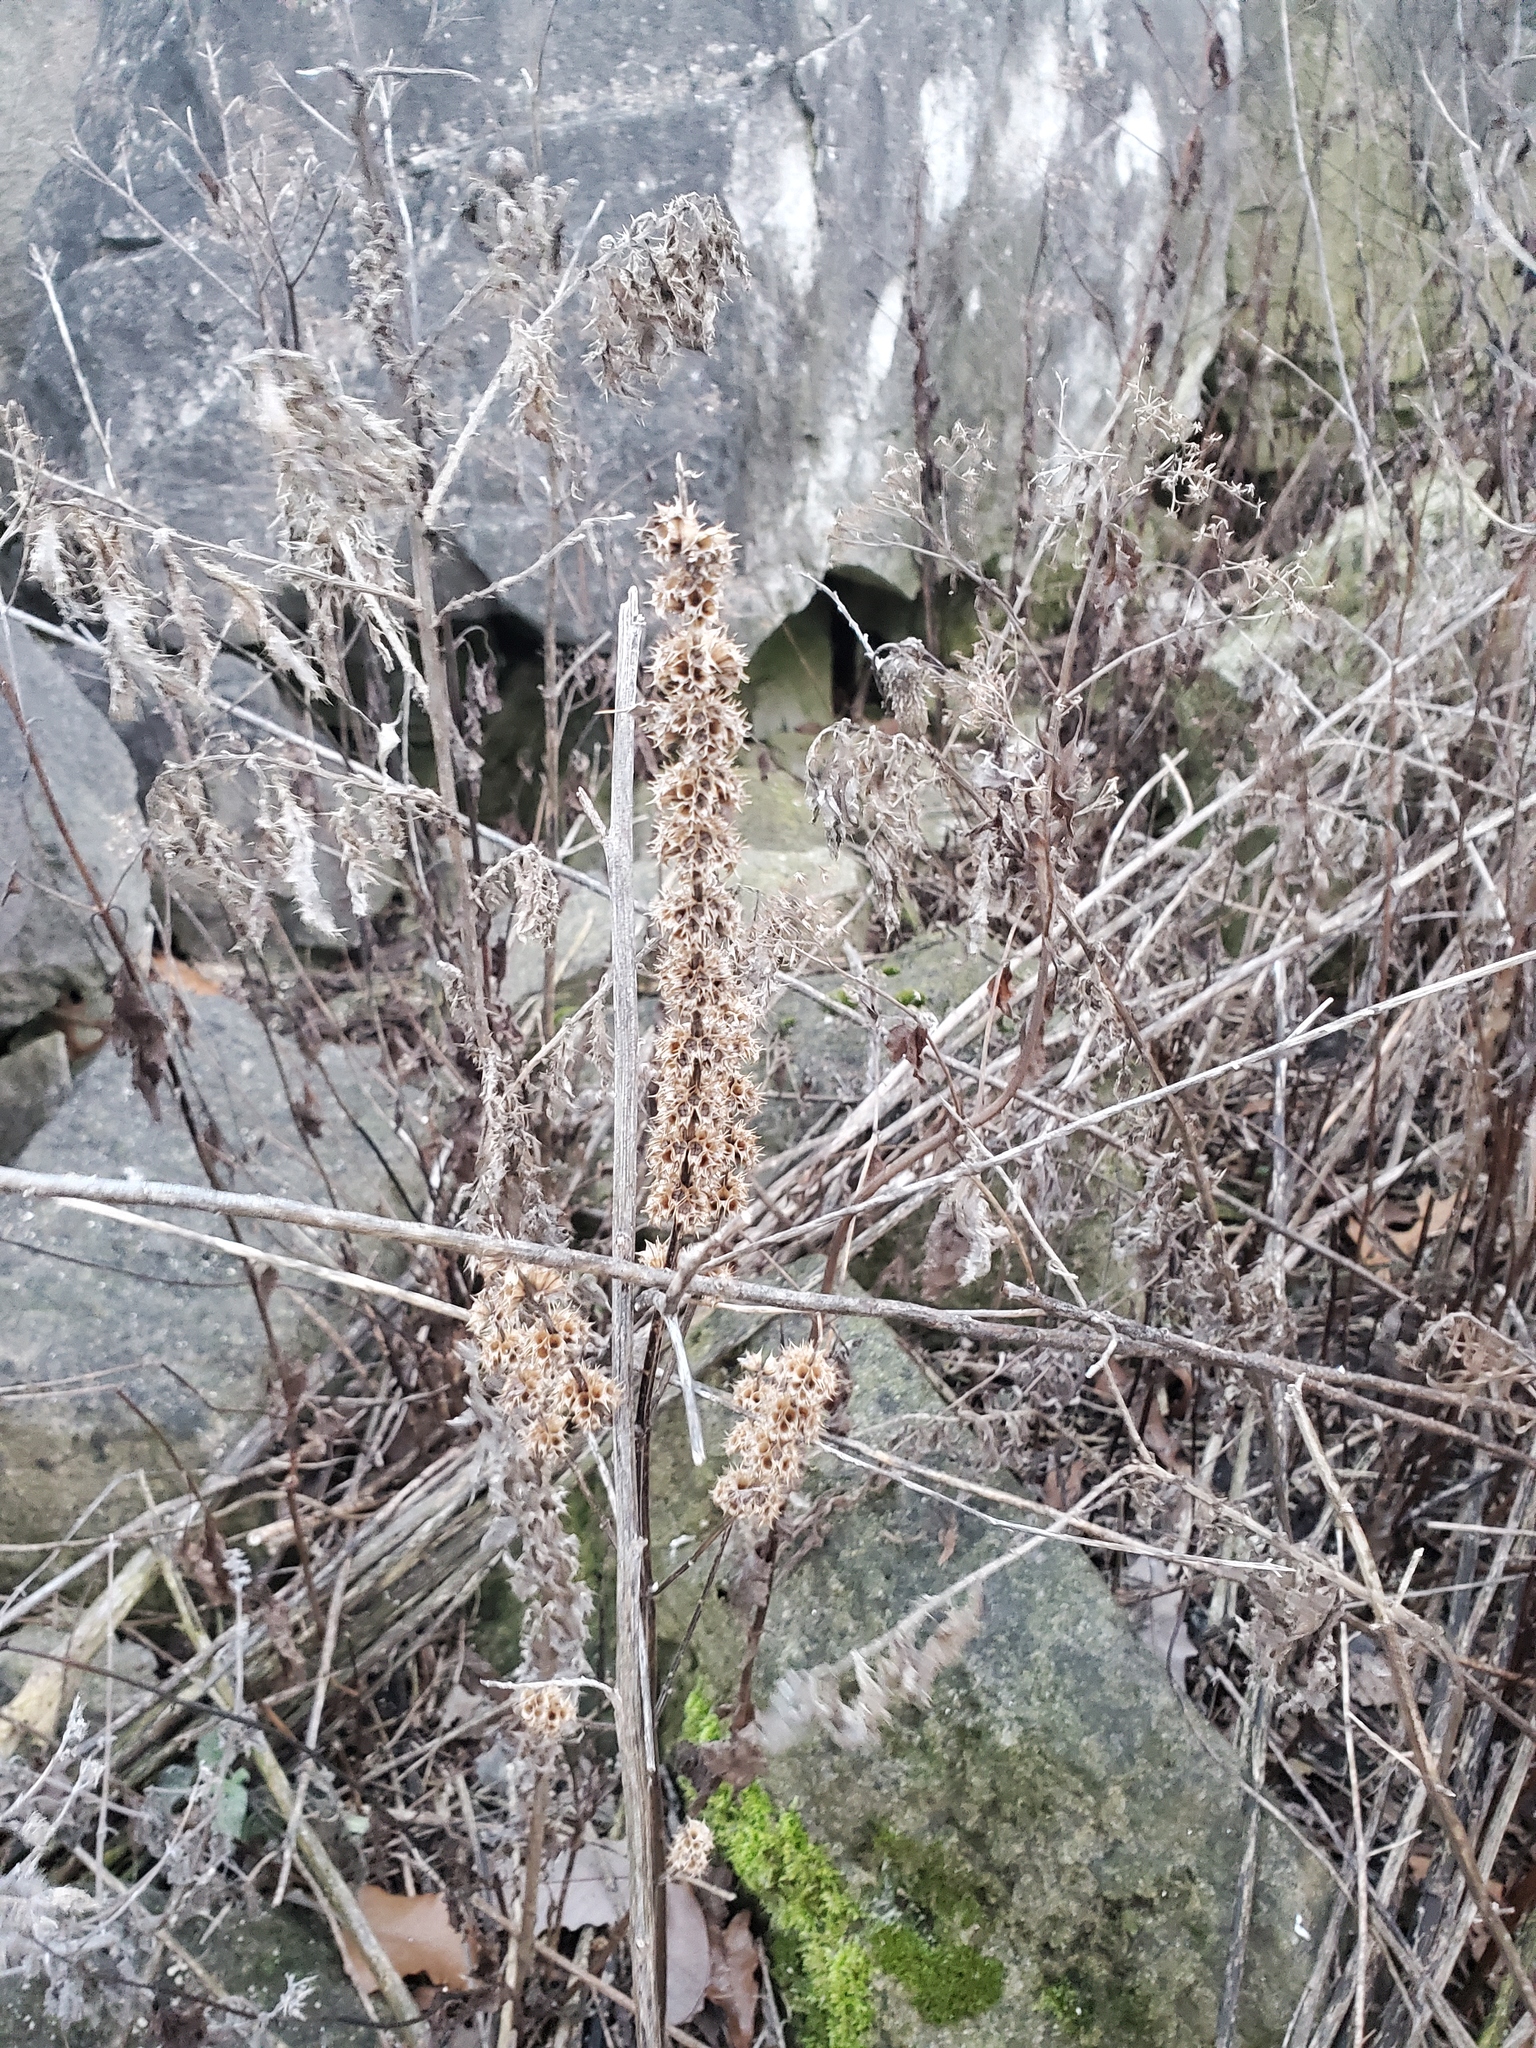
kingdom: Plantae
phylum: Tracheophyta
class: Magnoliopsida
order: Lamiales
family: Lamiaceae
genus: Leonurus
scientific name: Leonurus cardiaca
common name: Motherwort
